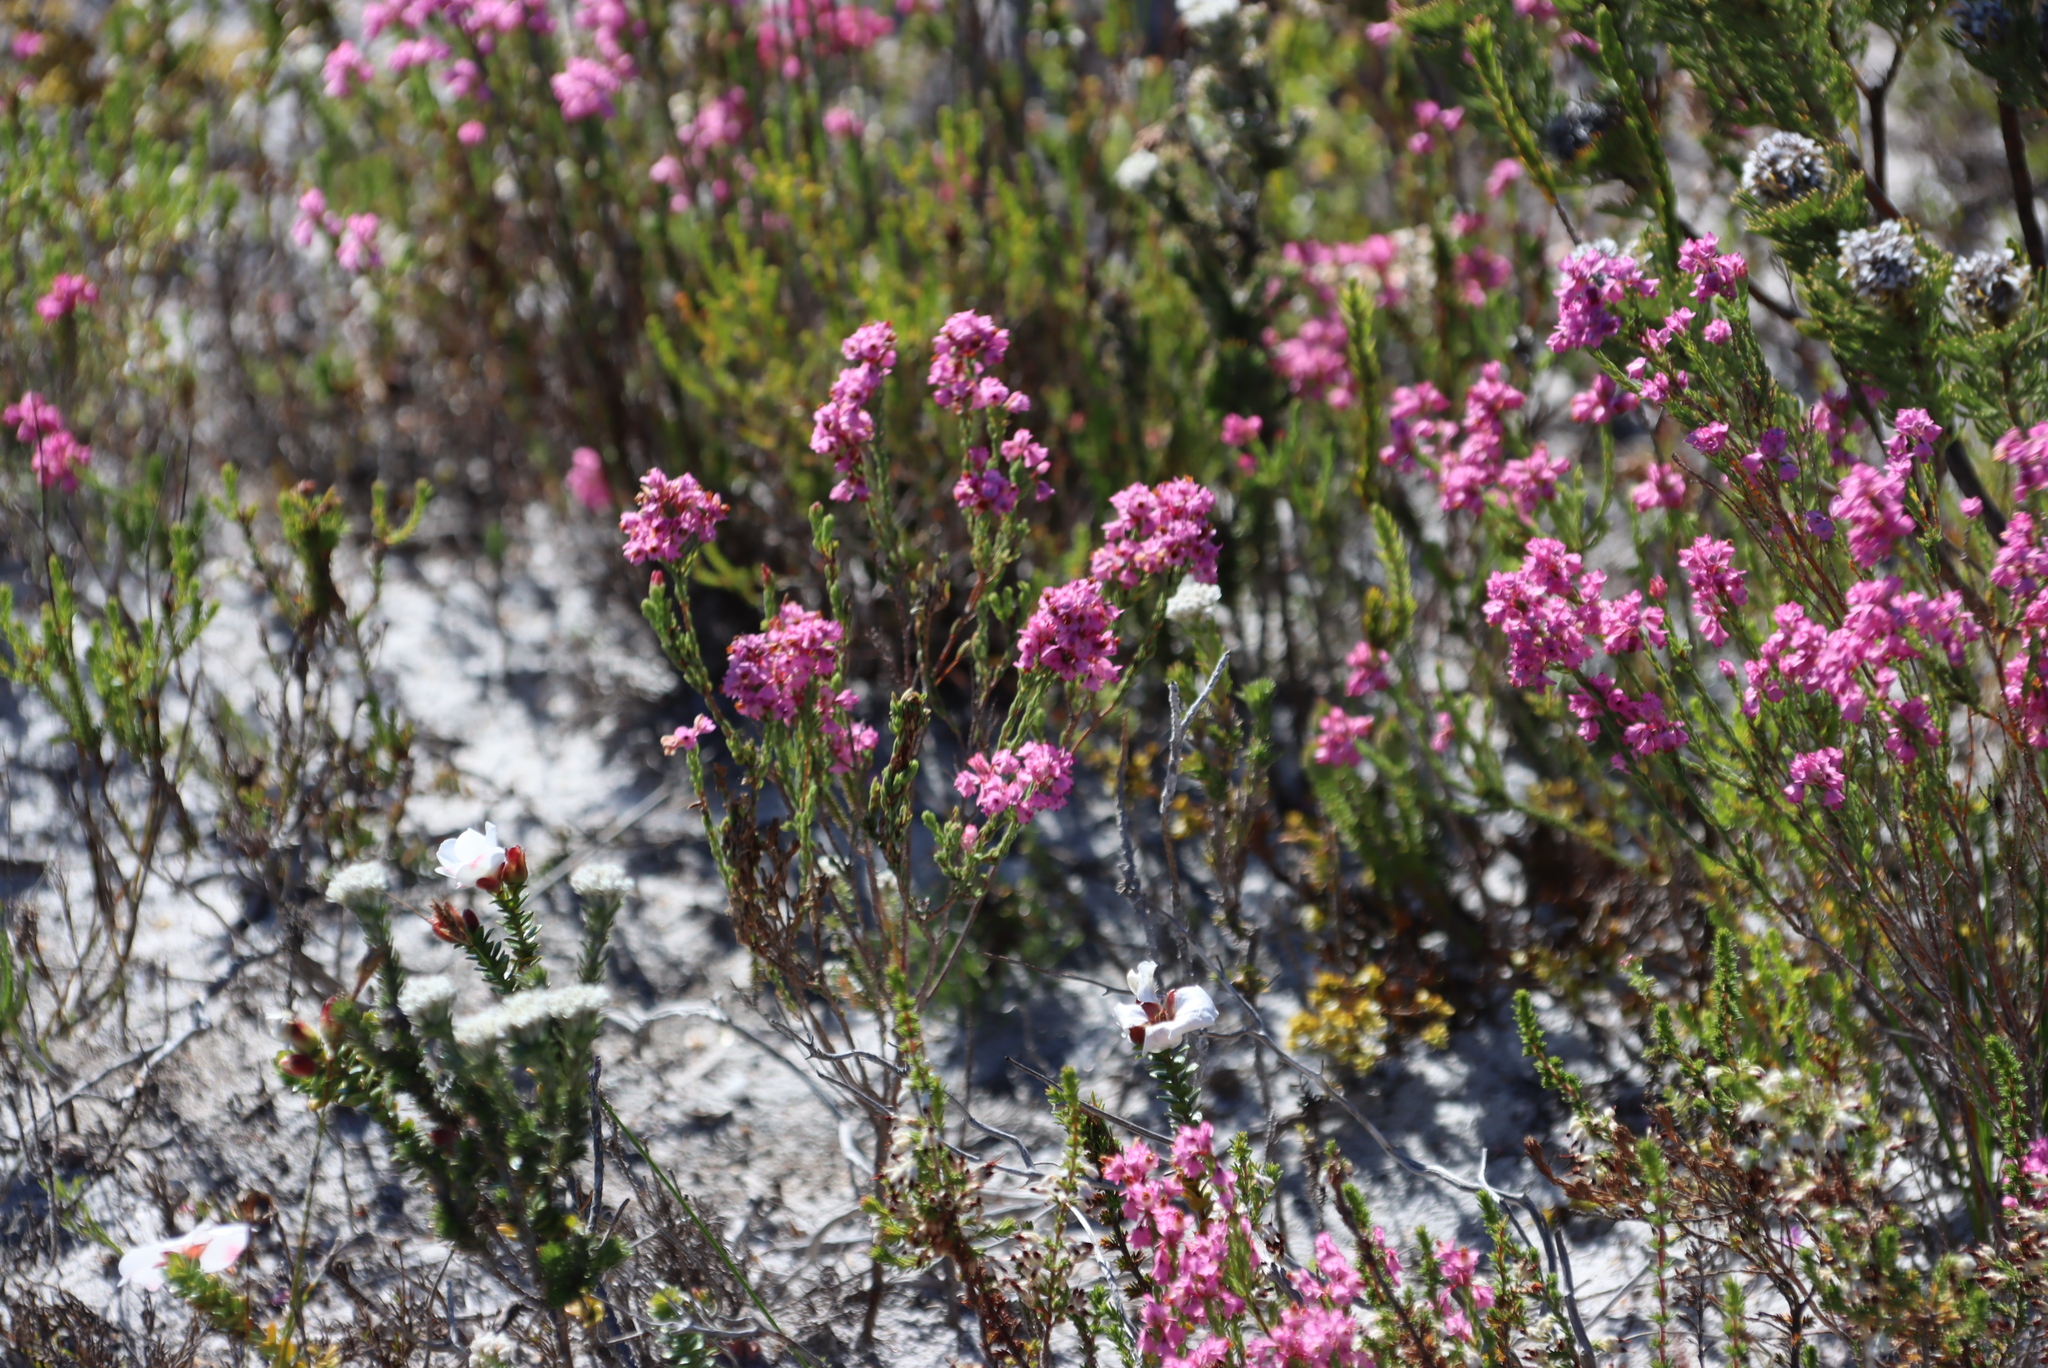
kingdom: Plantae
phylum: Tracheophyta
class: Magnoliopsida
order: Ericales
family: Ericaceae
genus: Erica
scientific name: Erica corifolia
